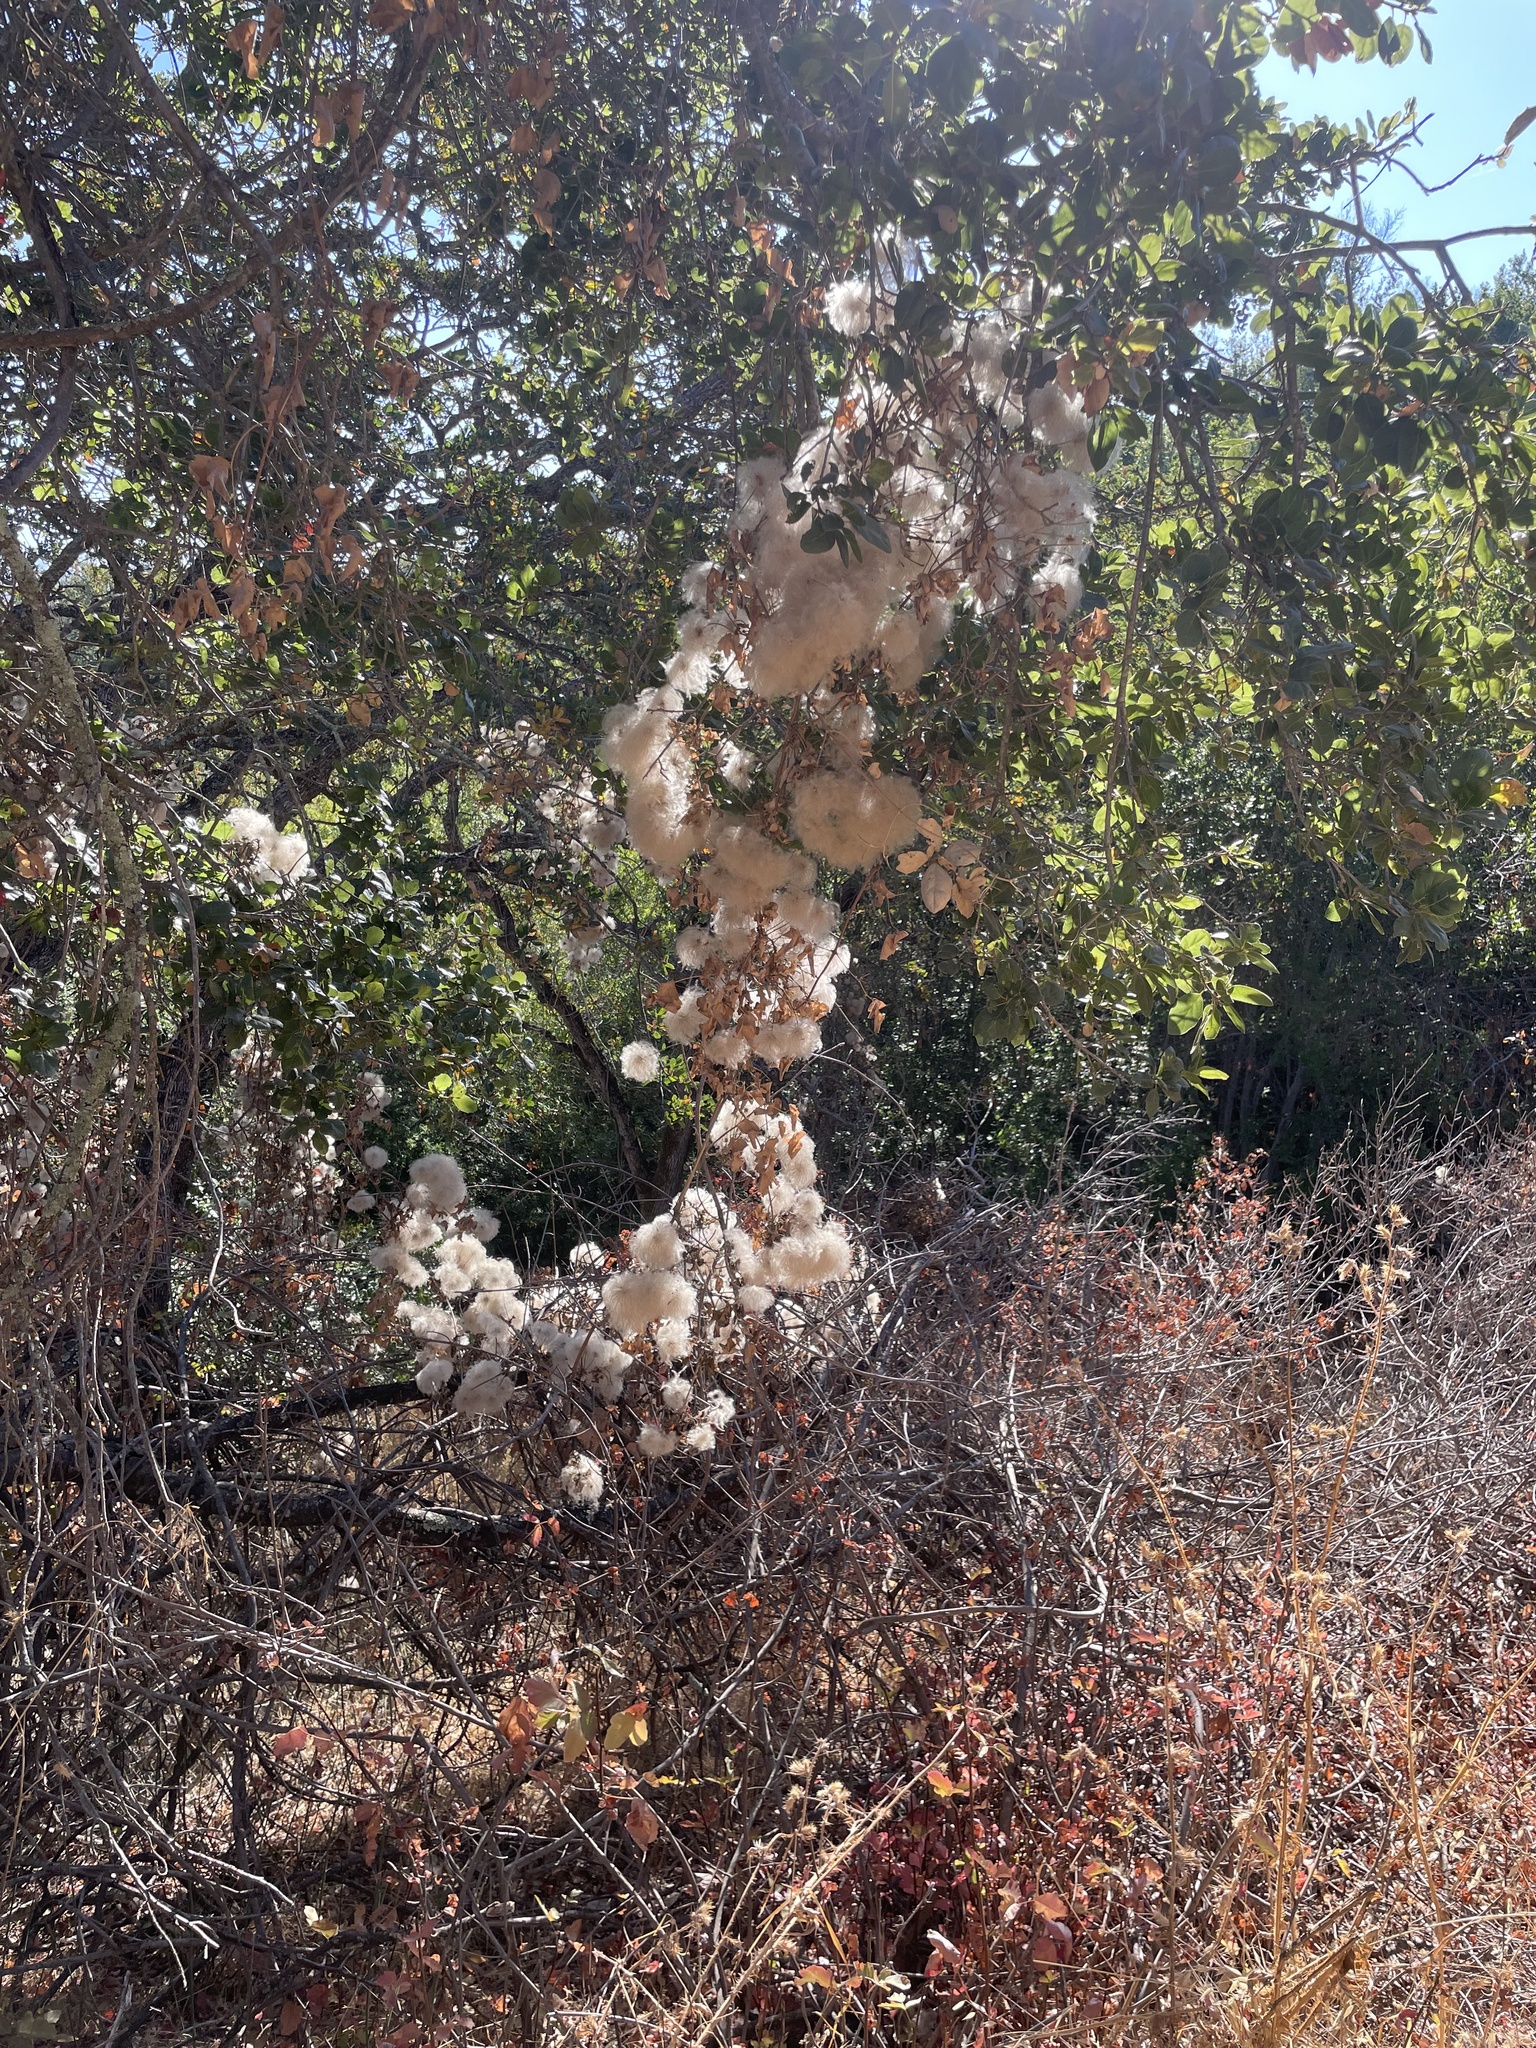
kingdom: Plantae
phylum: Tracheophyta
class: Magnoliopsida
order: Ranunculales
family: Ranunculaceae
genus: Clematis
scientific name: Clematis lasiantha
